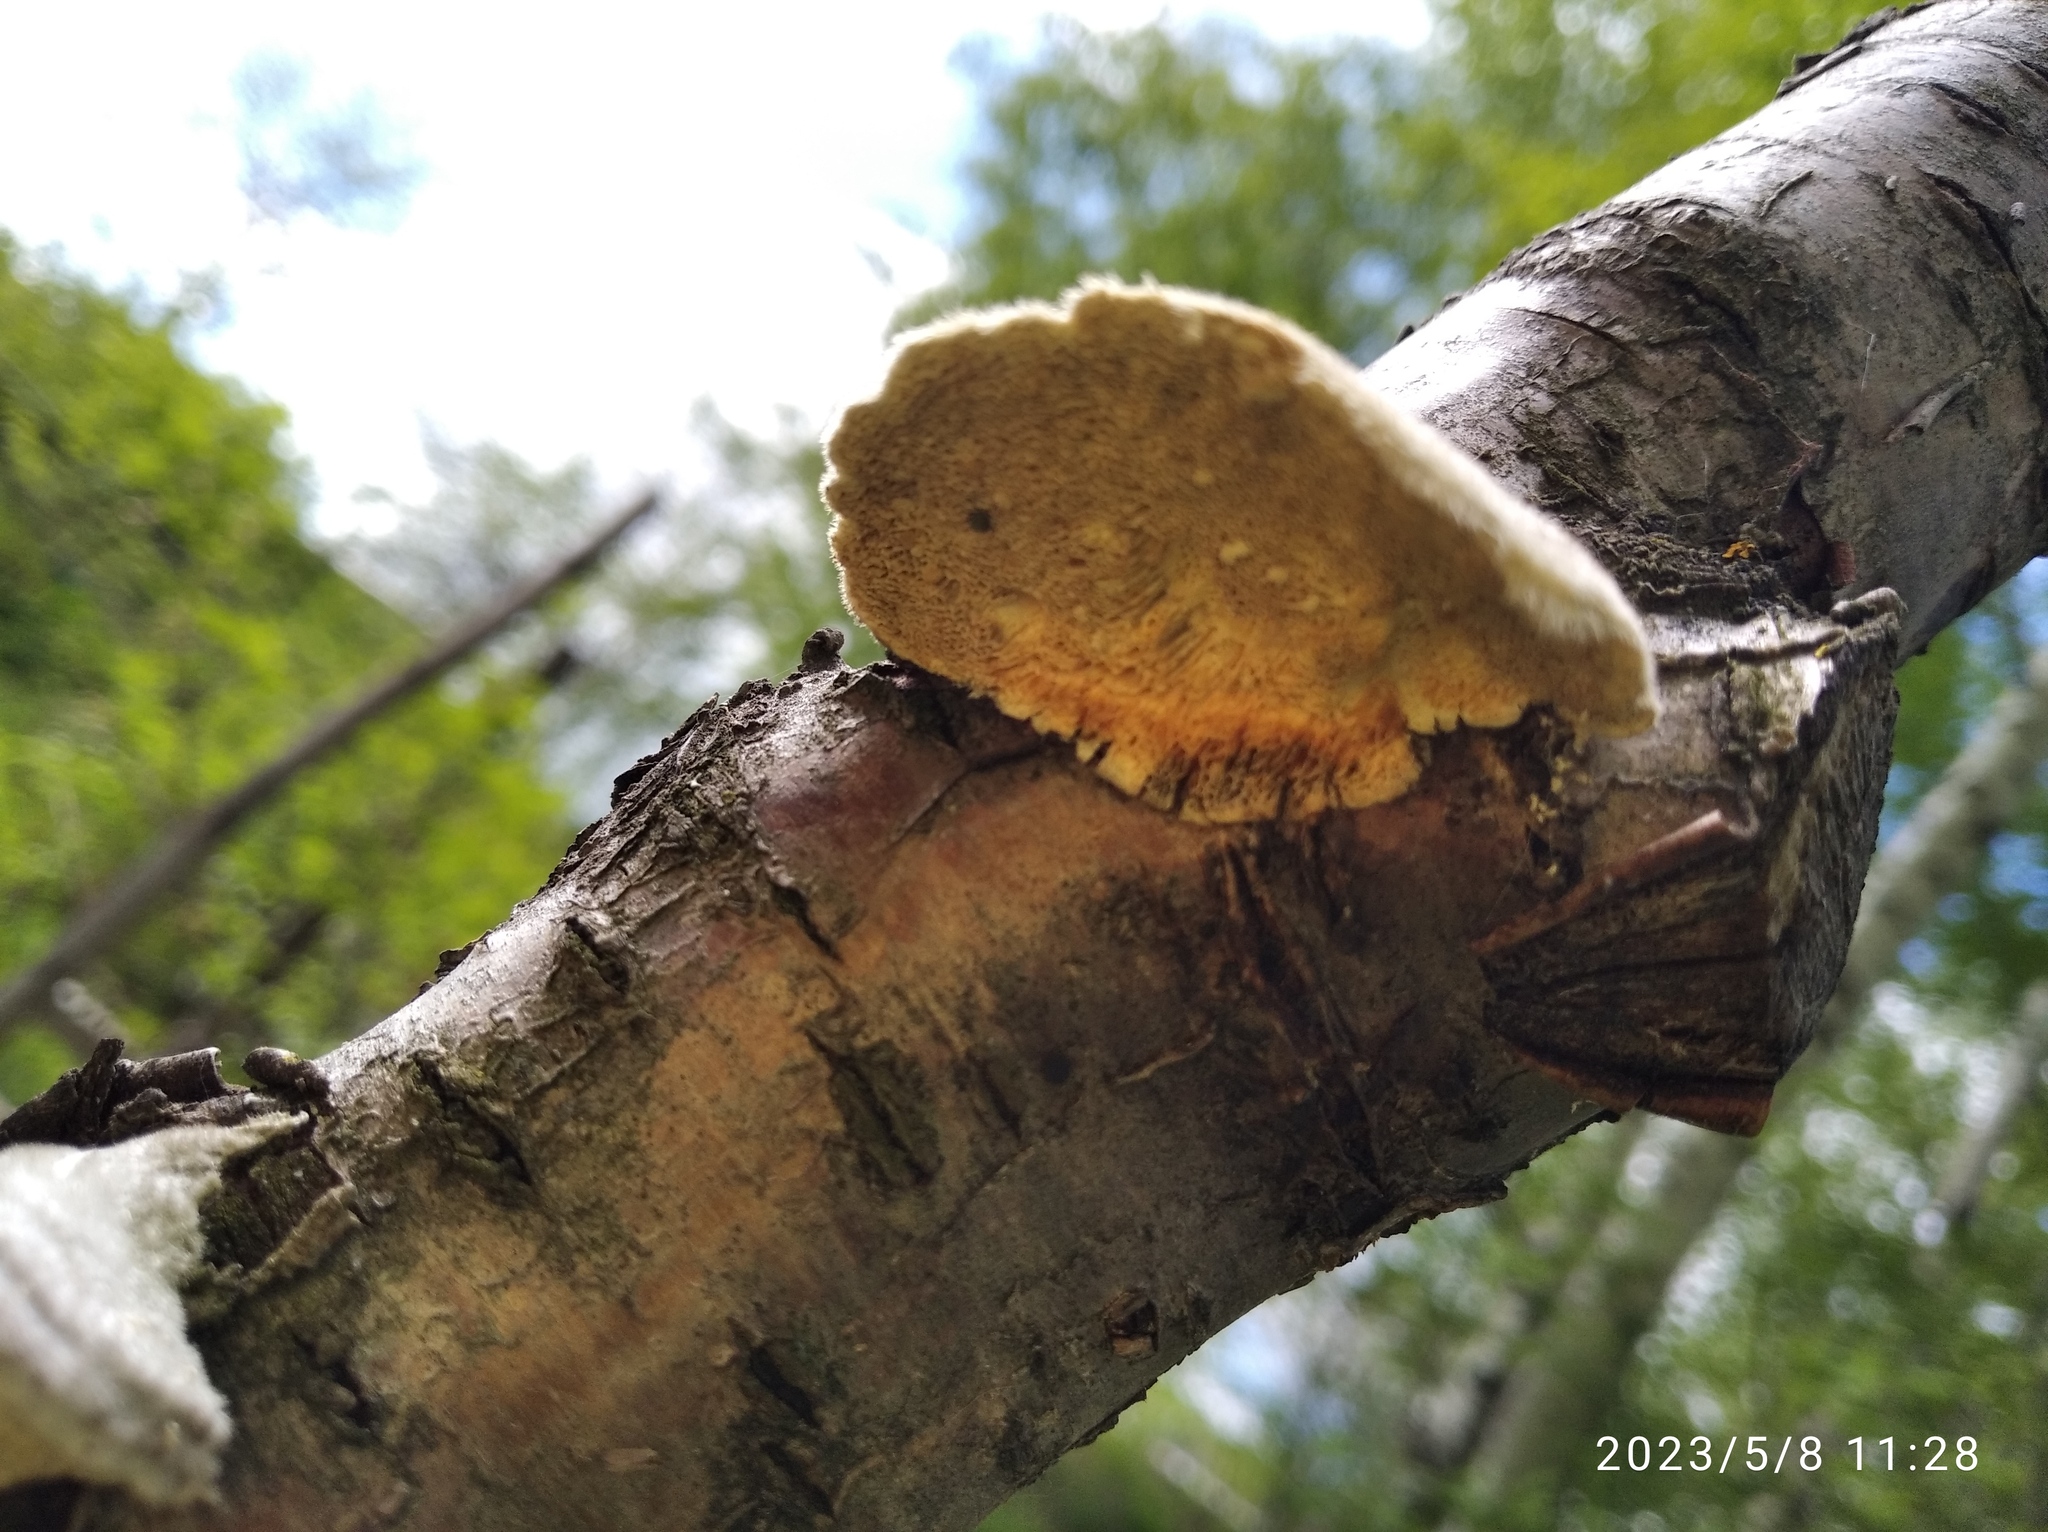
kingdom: Fungi
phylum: Basidiomycota
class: Agaricomycetes
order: Polyporales
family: Polyporaceae
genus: Trametes
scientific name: Trametes hirsuta
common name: Hairy bracket
